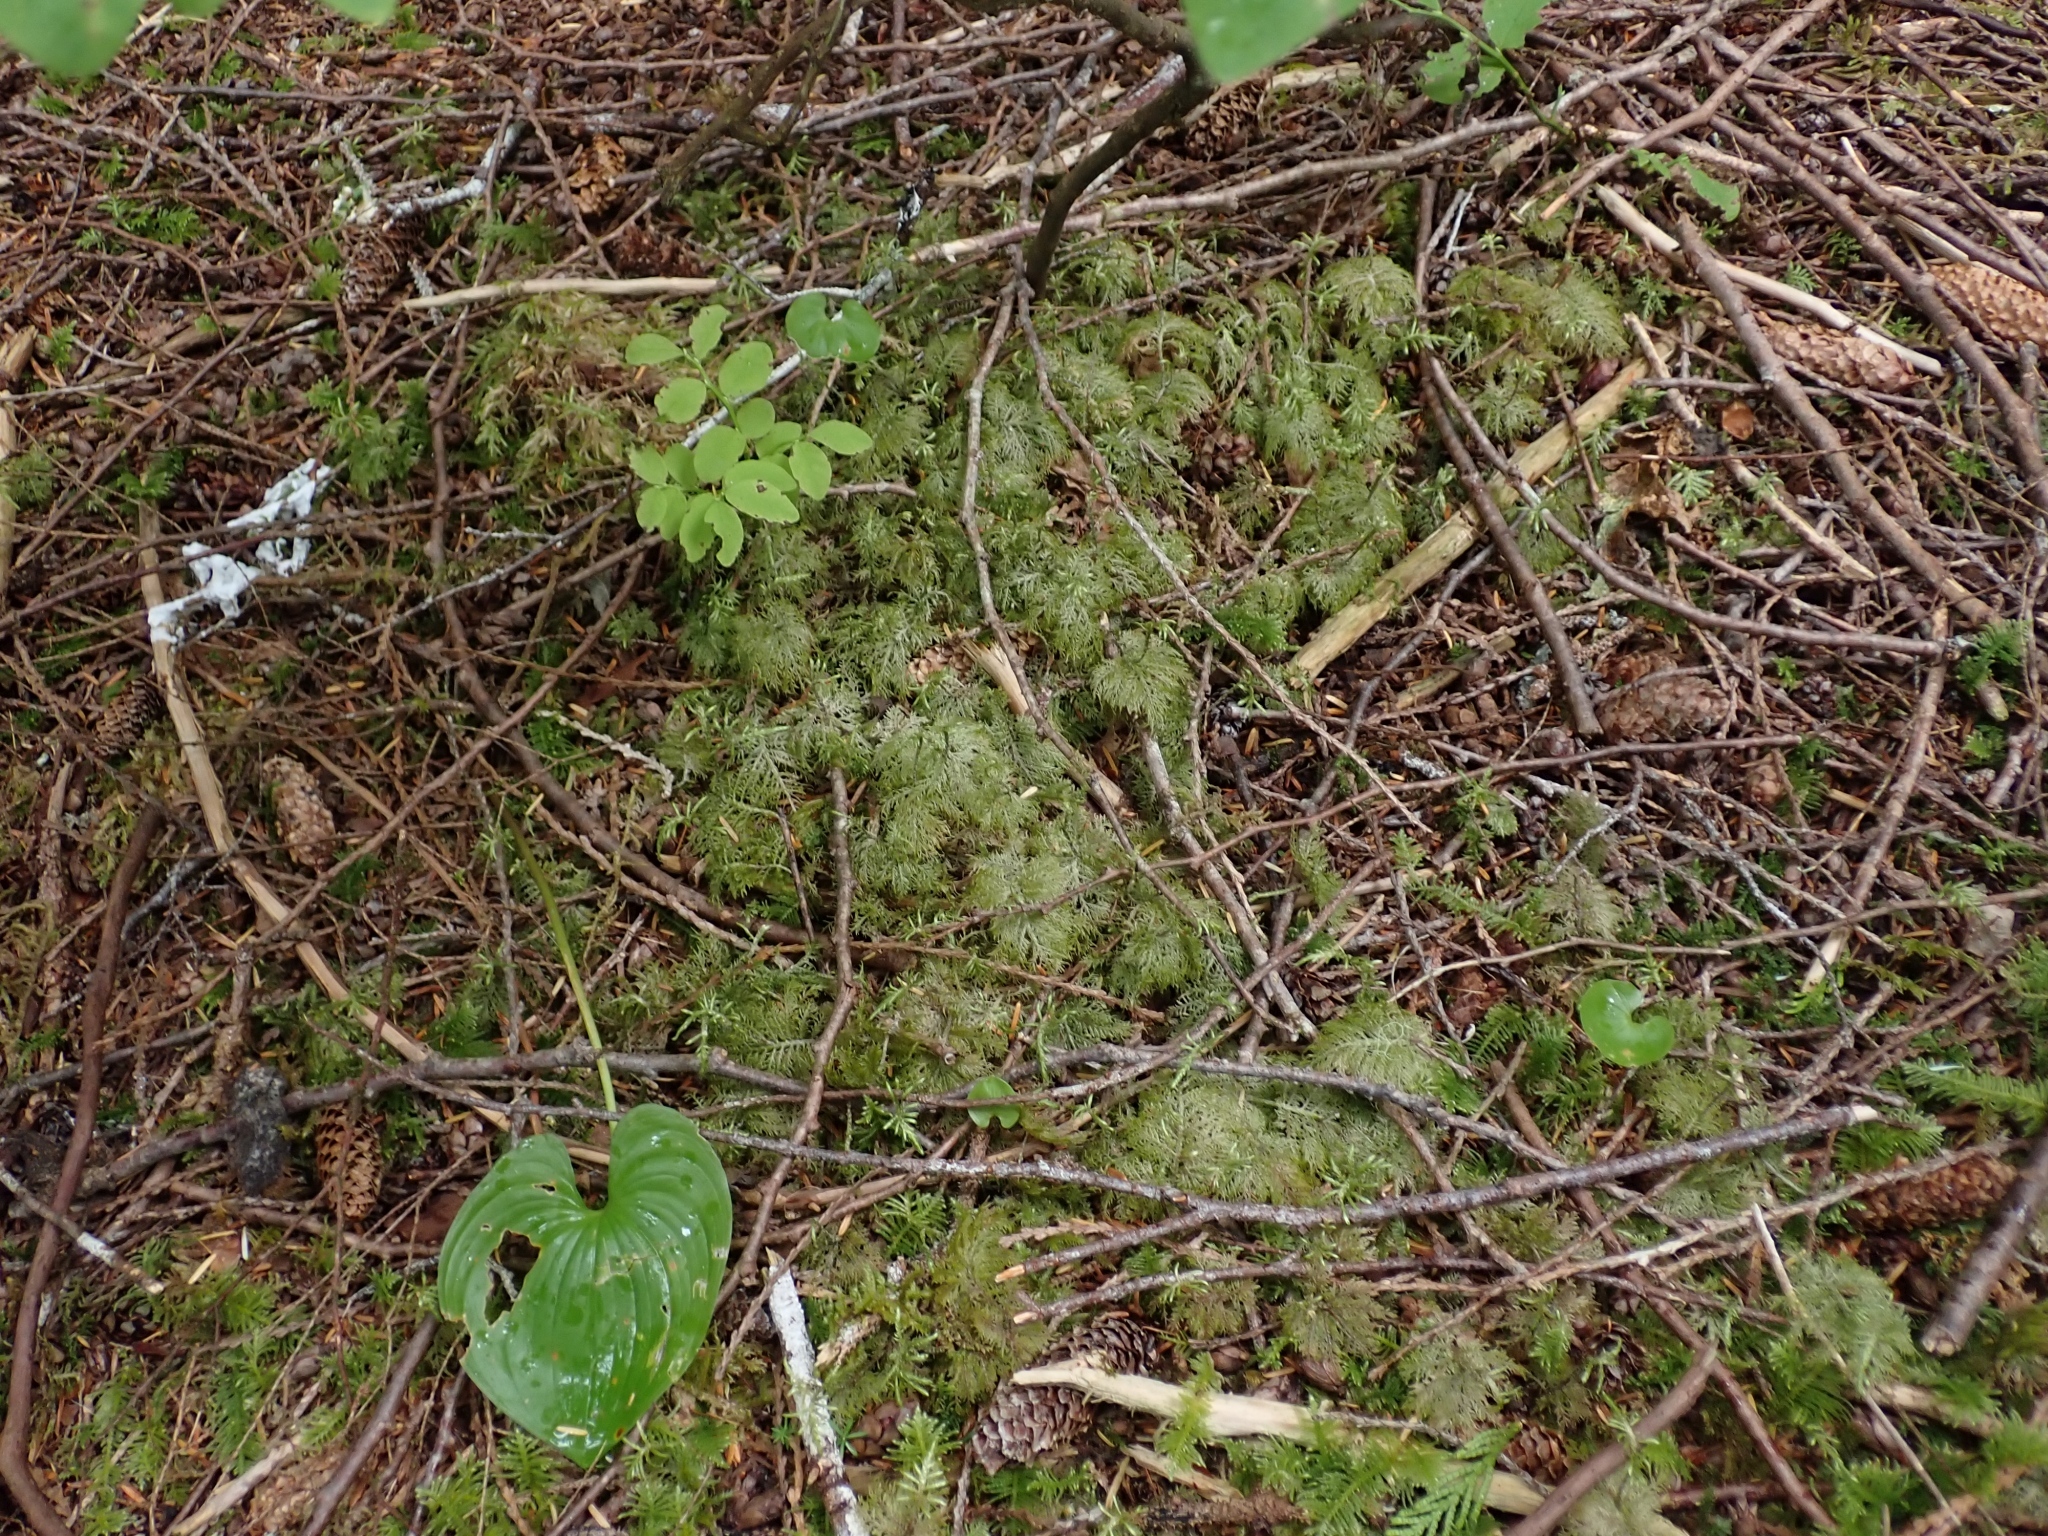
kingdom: Plantae
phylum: Bryophyta
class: Bryopsida
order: Hypnales
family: Hylocomiaceae
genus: Hylocomium
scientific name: Hylocomium splendens
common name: Stairstep moss
